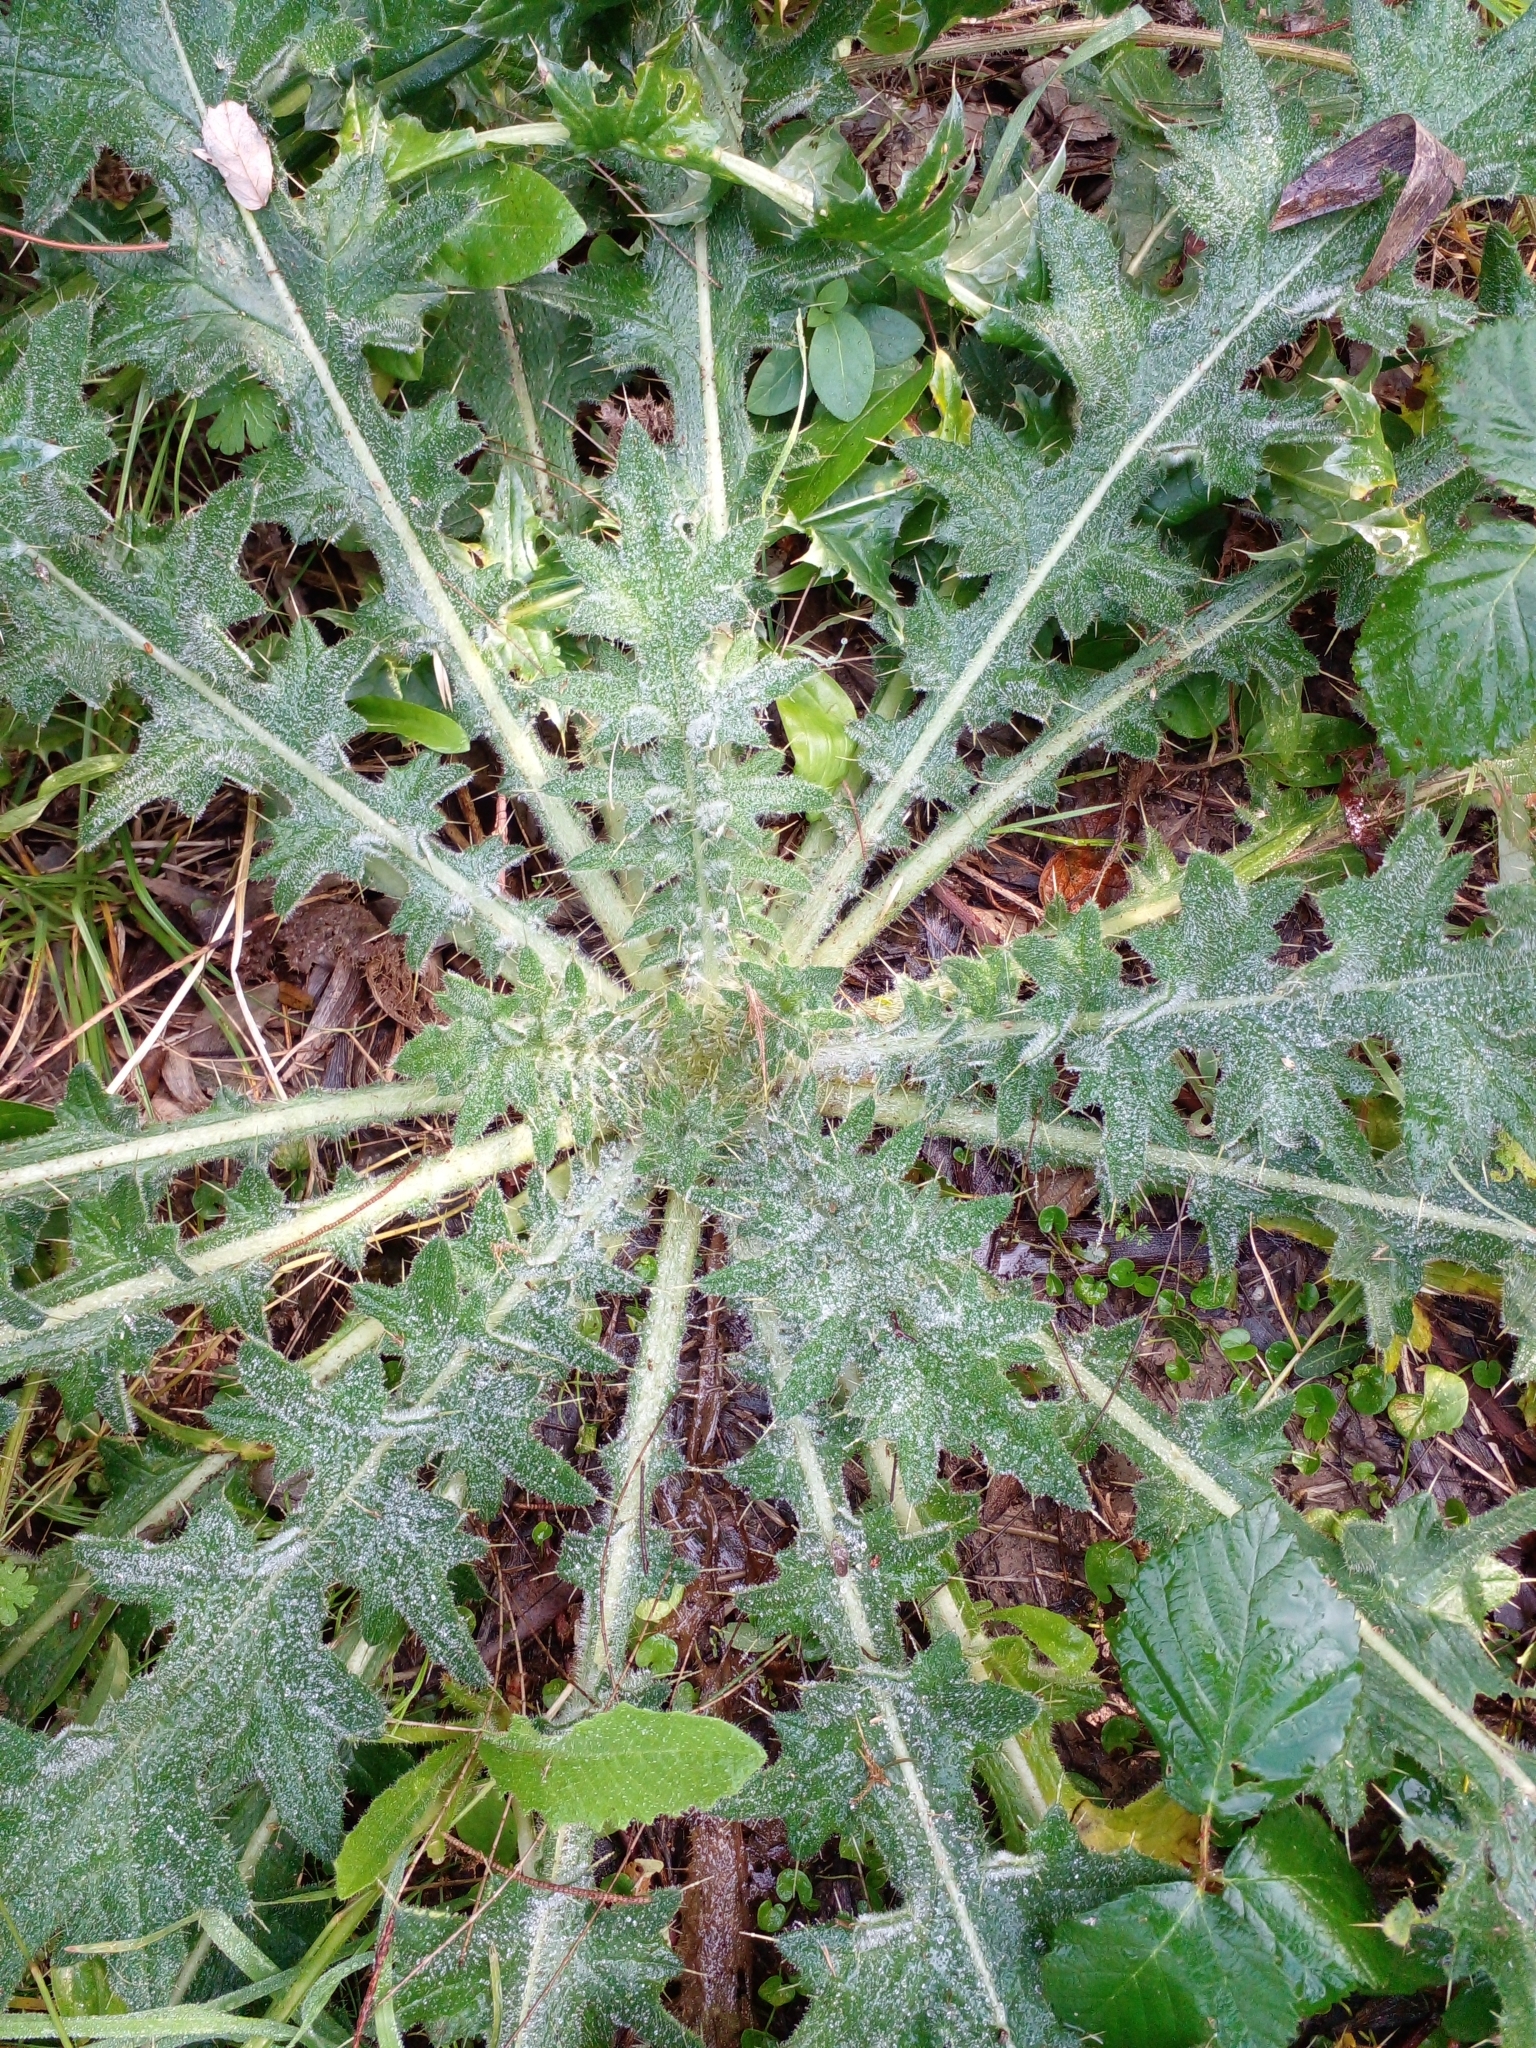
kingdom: Plantae
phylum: Tracheophyta
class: Magnoliopsida
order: Asterales
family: Asteraceae
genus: Cirsium
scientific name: Cirsium vulgare
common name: Bull thistle
